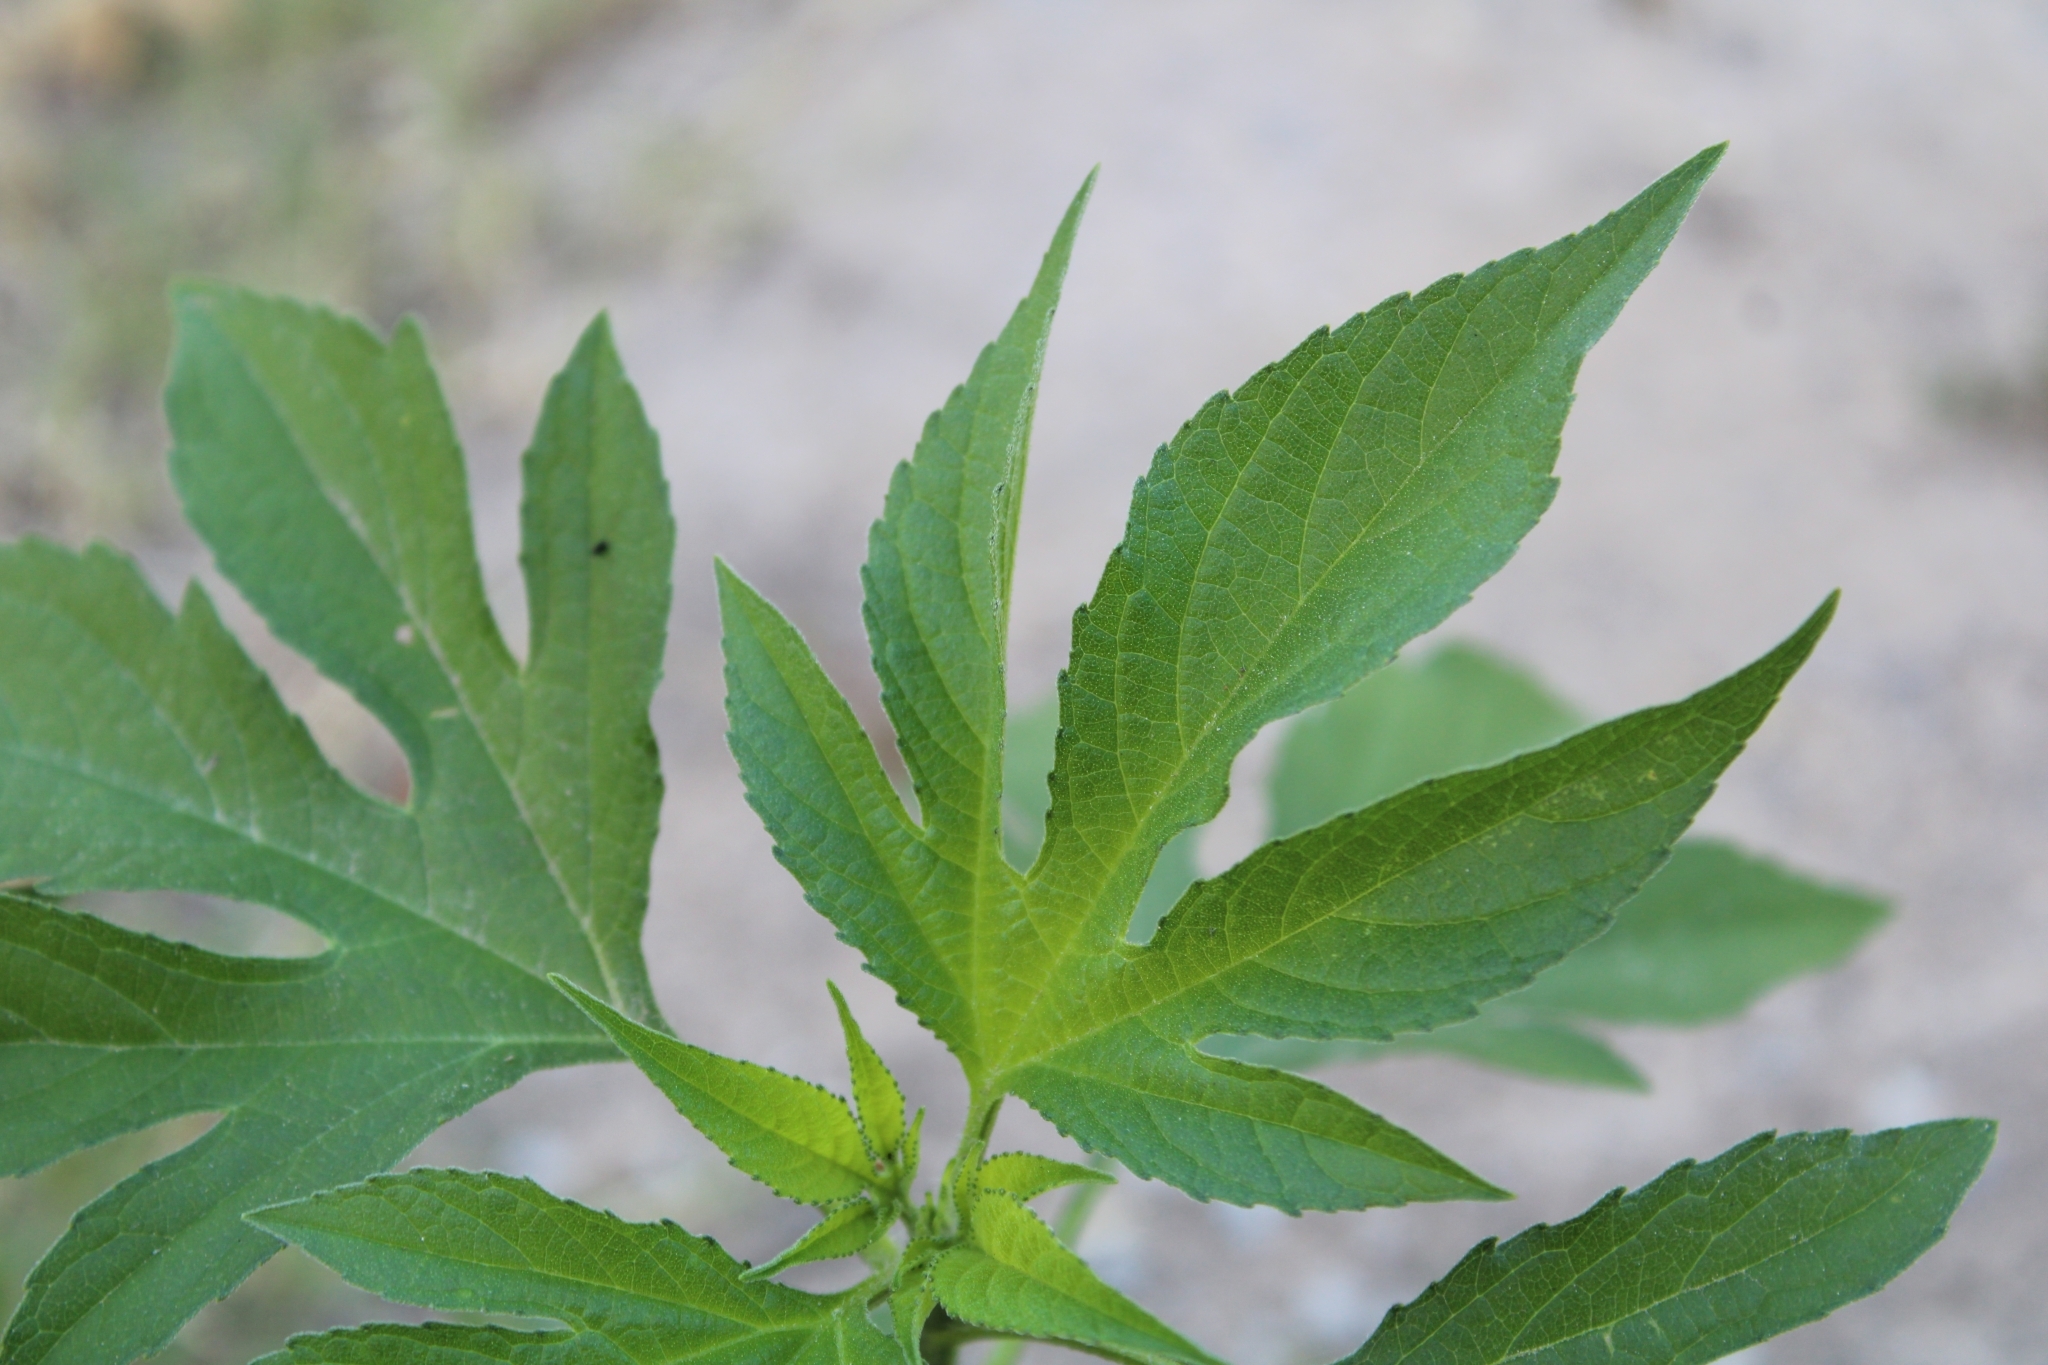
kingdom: Plantae
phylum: Tracheophyta
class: Magnoliopsida
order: Asterales
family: Asteraceae
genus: Ambrosia
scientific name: Ambrosia trifida
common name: Giant ragweed
